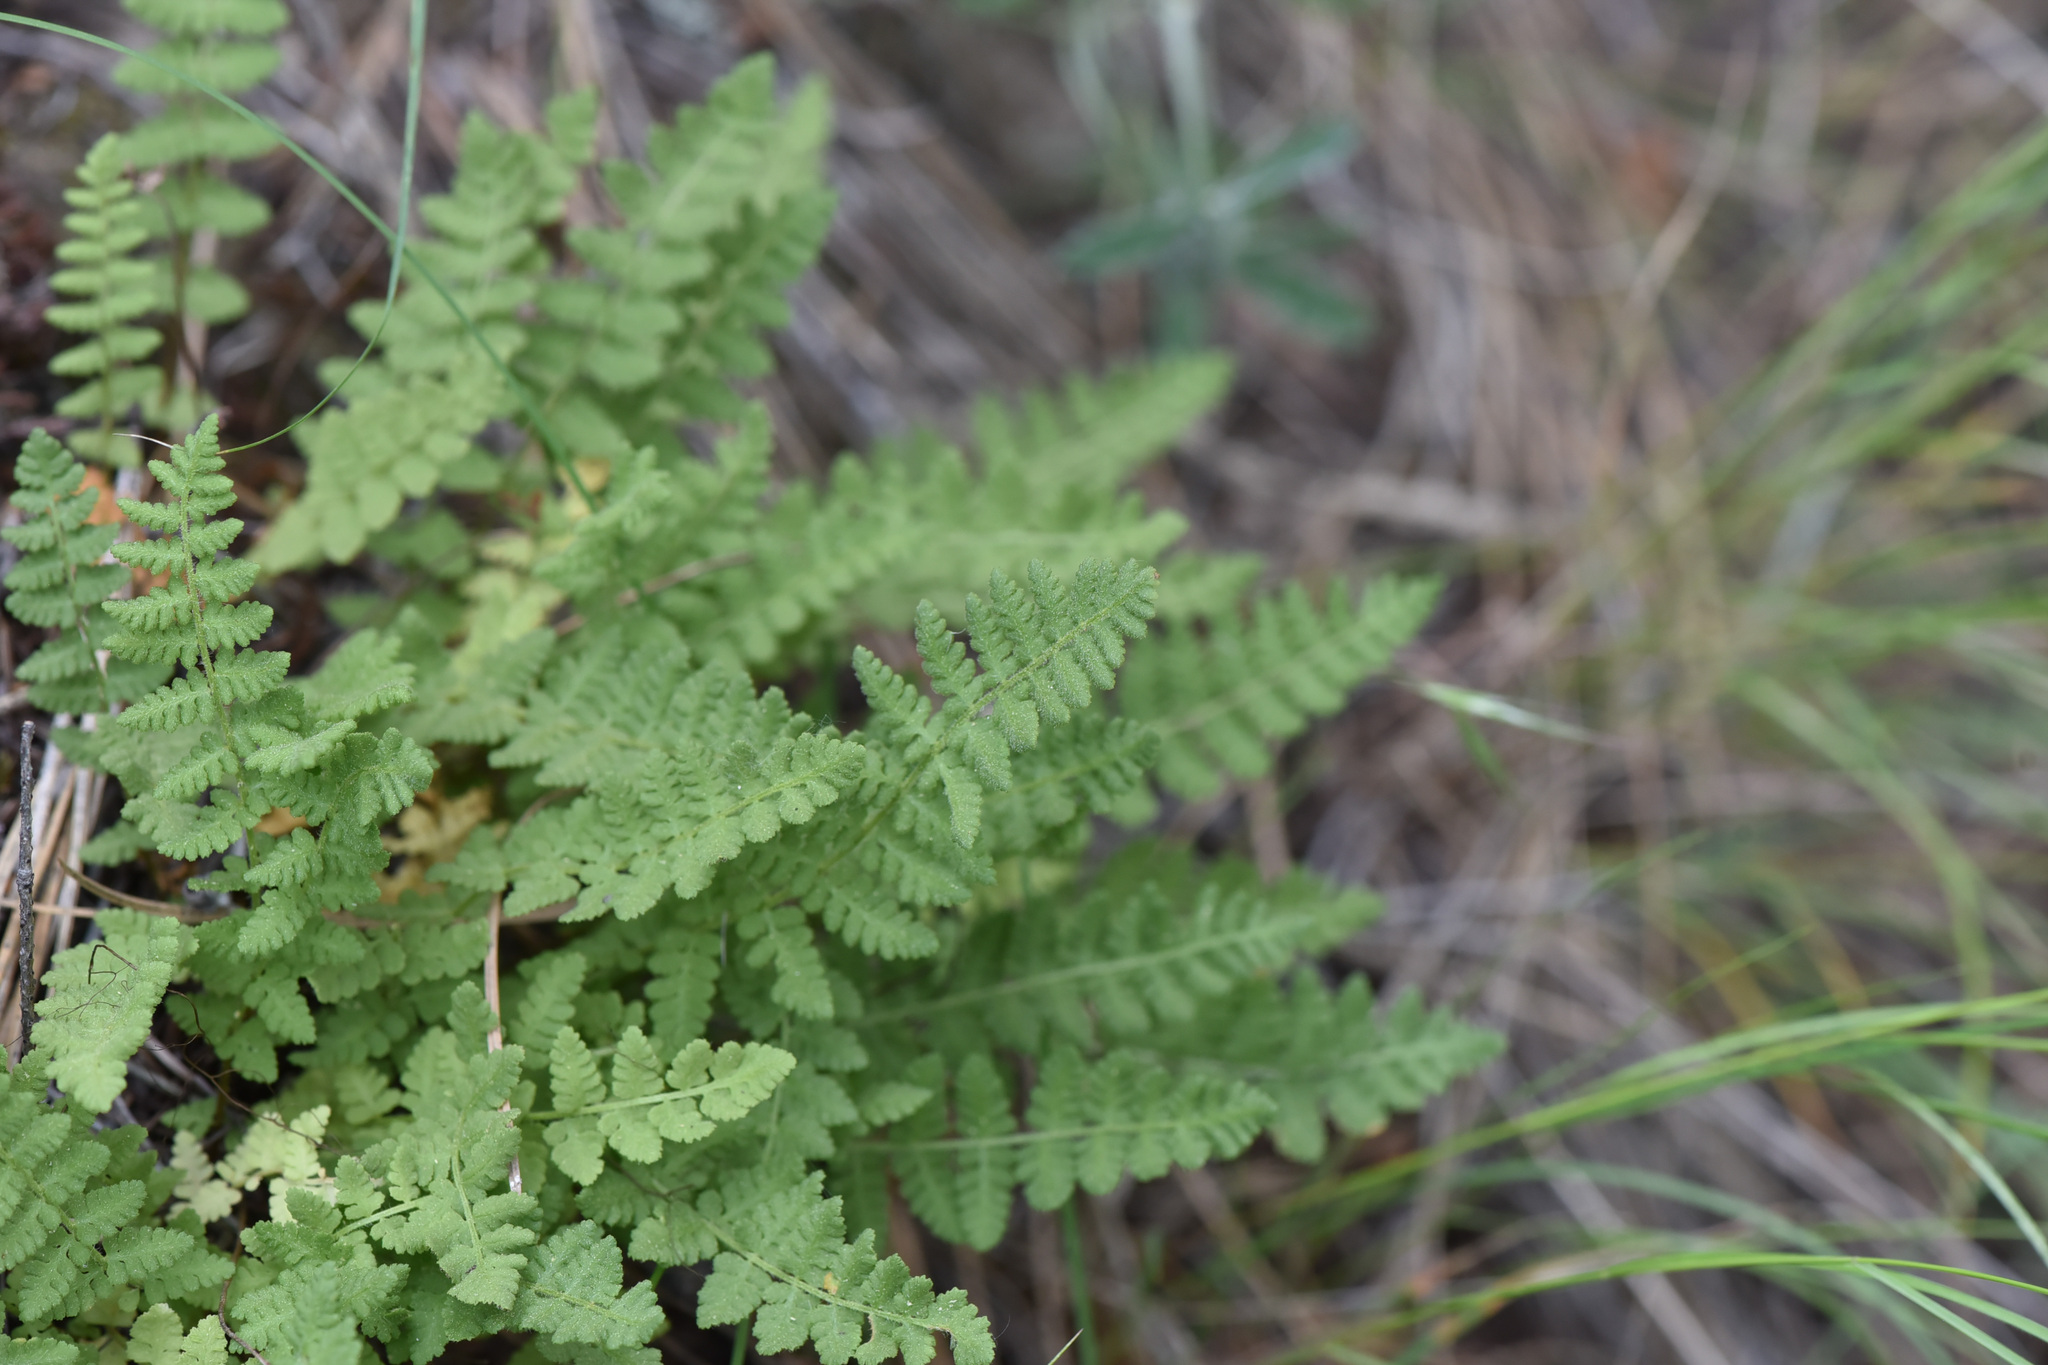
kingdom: Plantae
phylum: Tracheophyta
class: Polypodiopsida
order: Polypodiales
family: Woodsiaceae
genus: Physematium
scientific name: Physematium scopulinum
